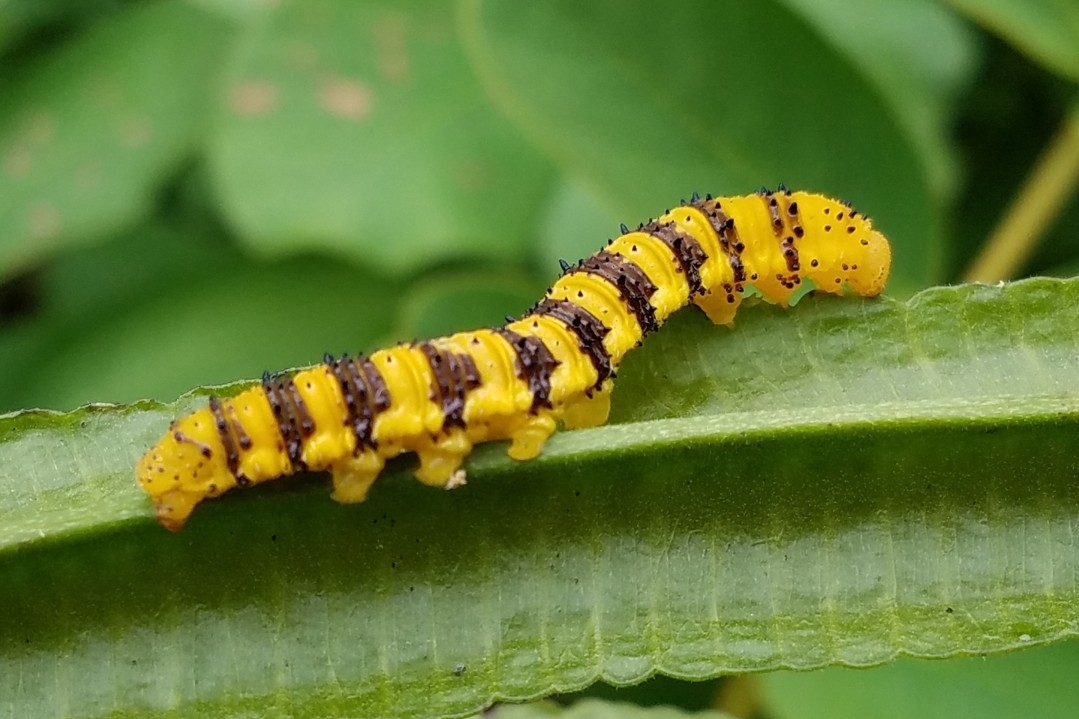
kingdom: Animalia
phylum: Arthropoda
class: Insecta
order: Lepidoptera
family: Pieridae
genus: Phoebis
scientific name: Phoebis philea
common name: Orange-barred giant sulphur
